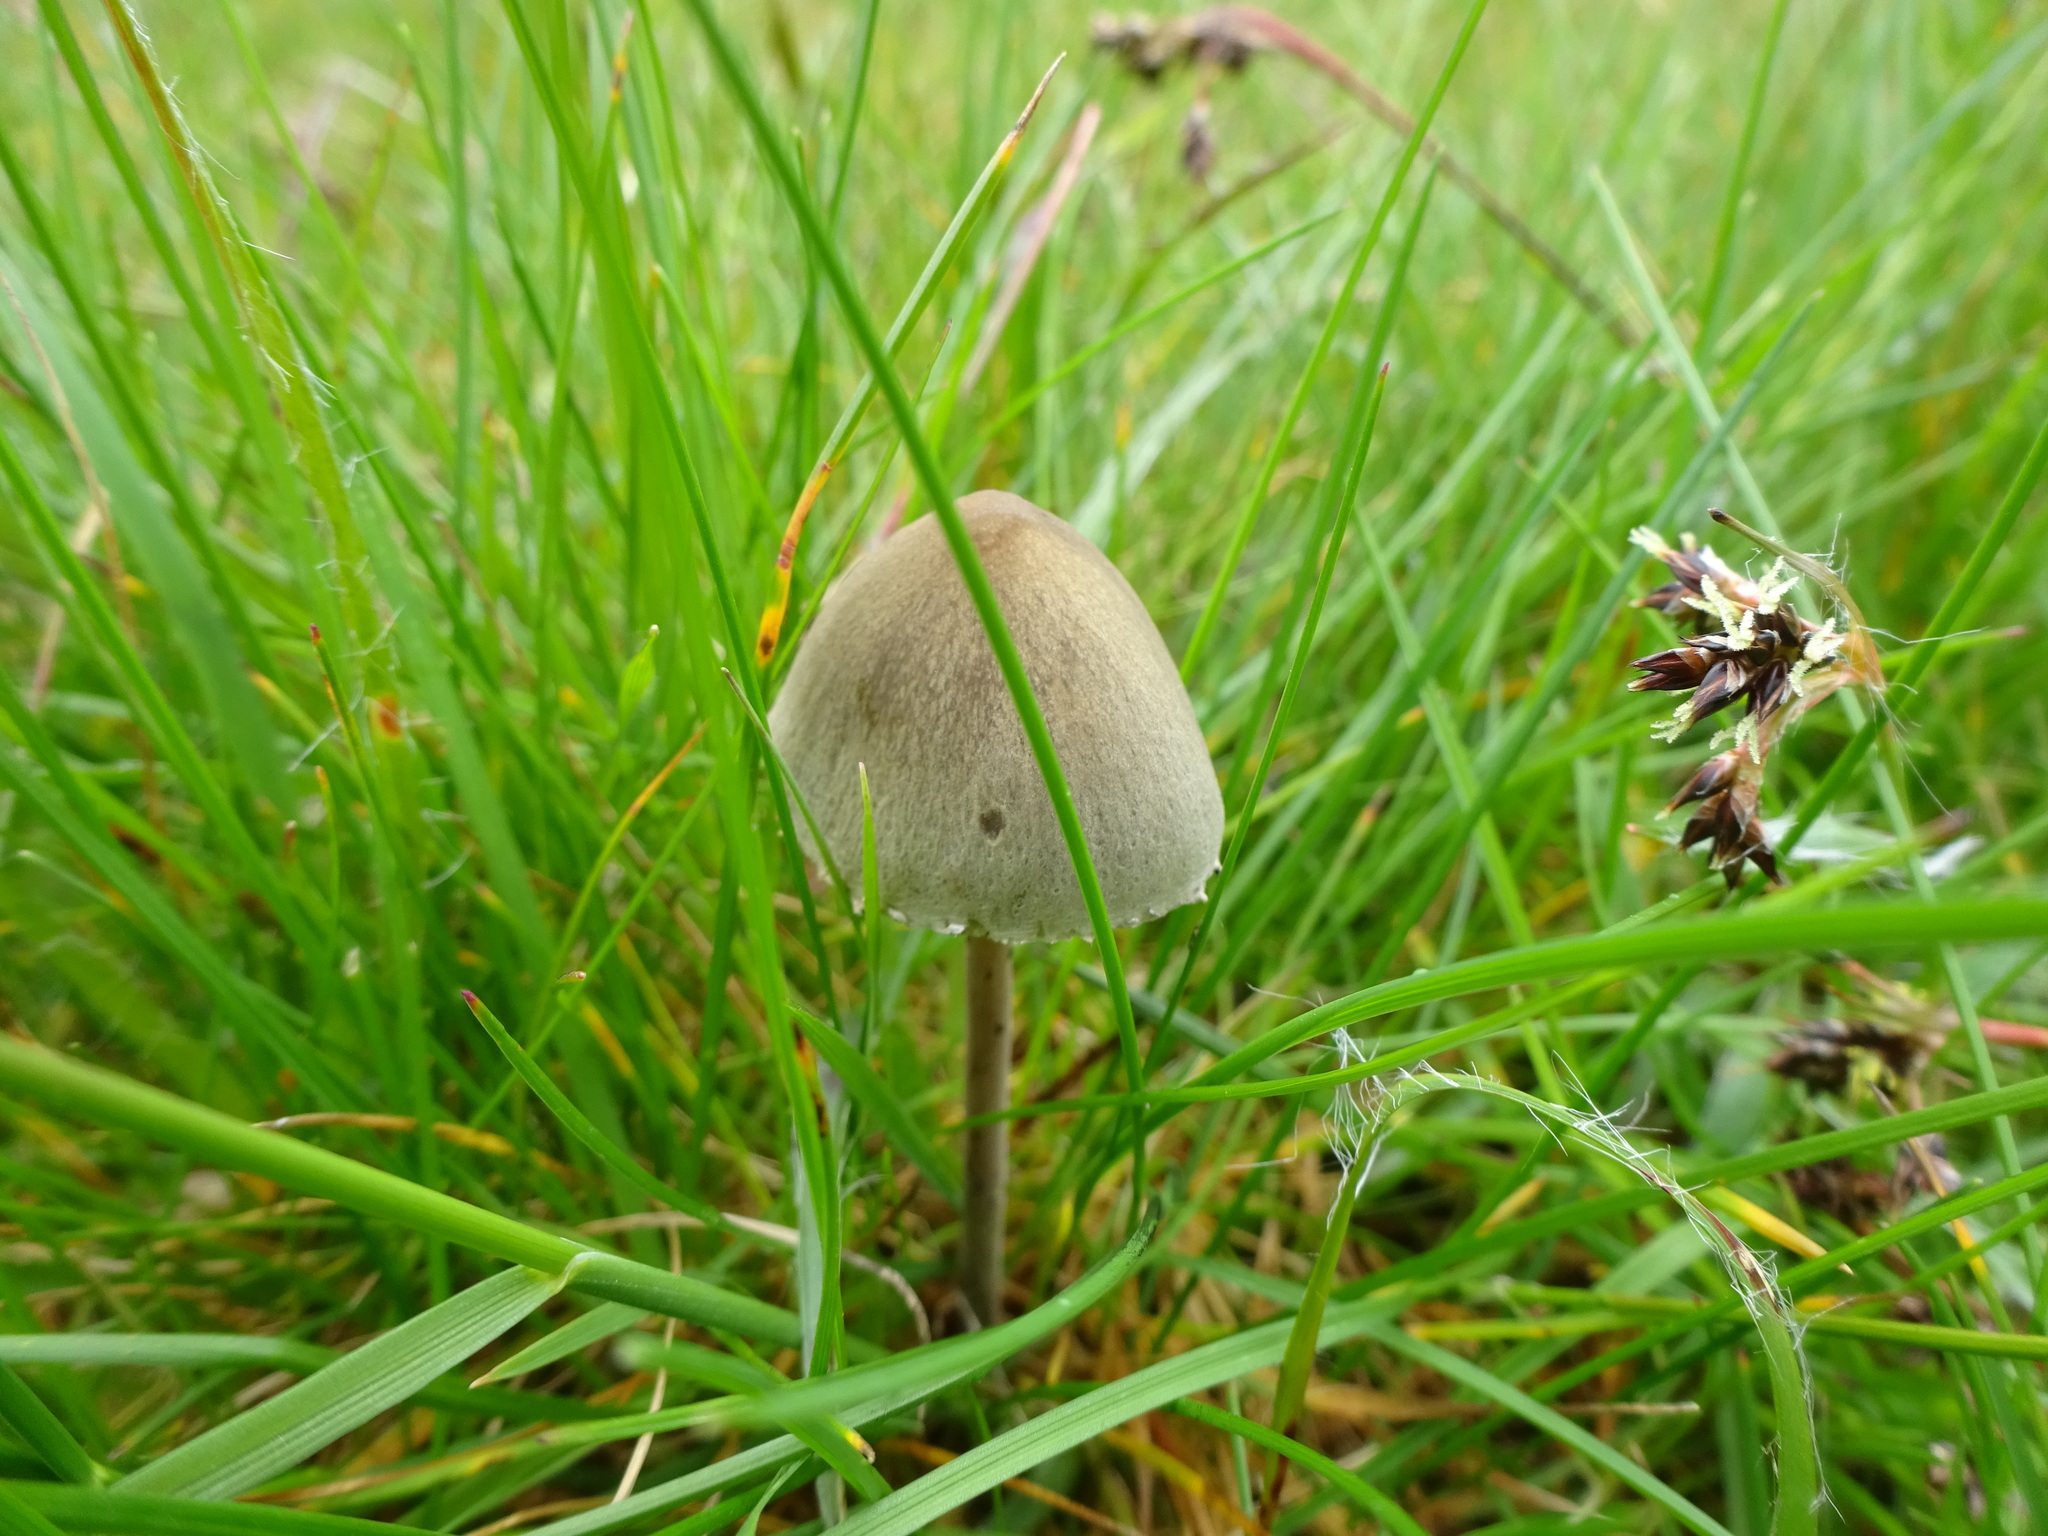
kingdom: Fungi
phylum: Basidiomycota
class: Agaricomycetes
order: Agaricales
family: Bolbitiaceae
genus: Panaeolus
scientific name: Panaeolus papilionaceus
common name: Petticoat mottlegill
